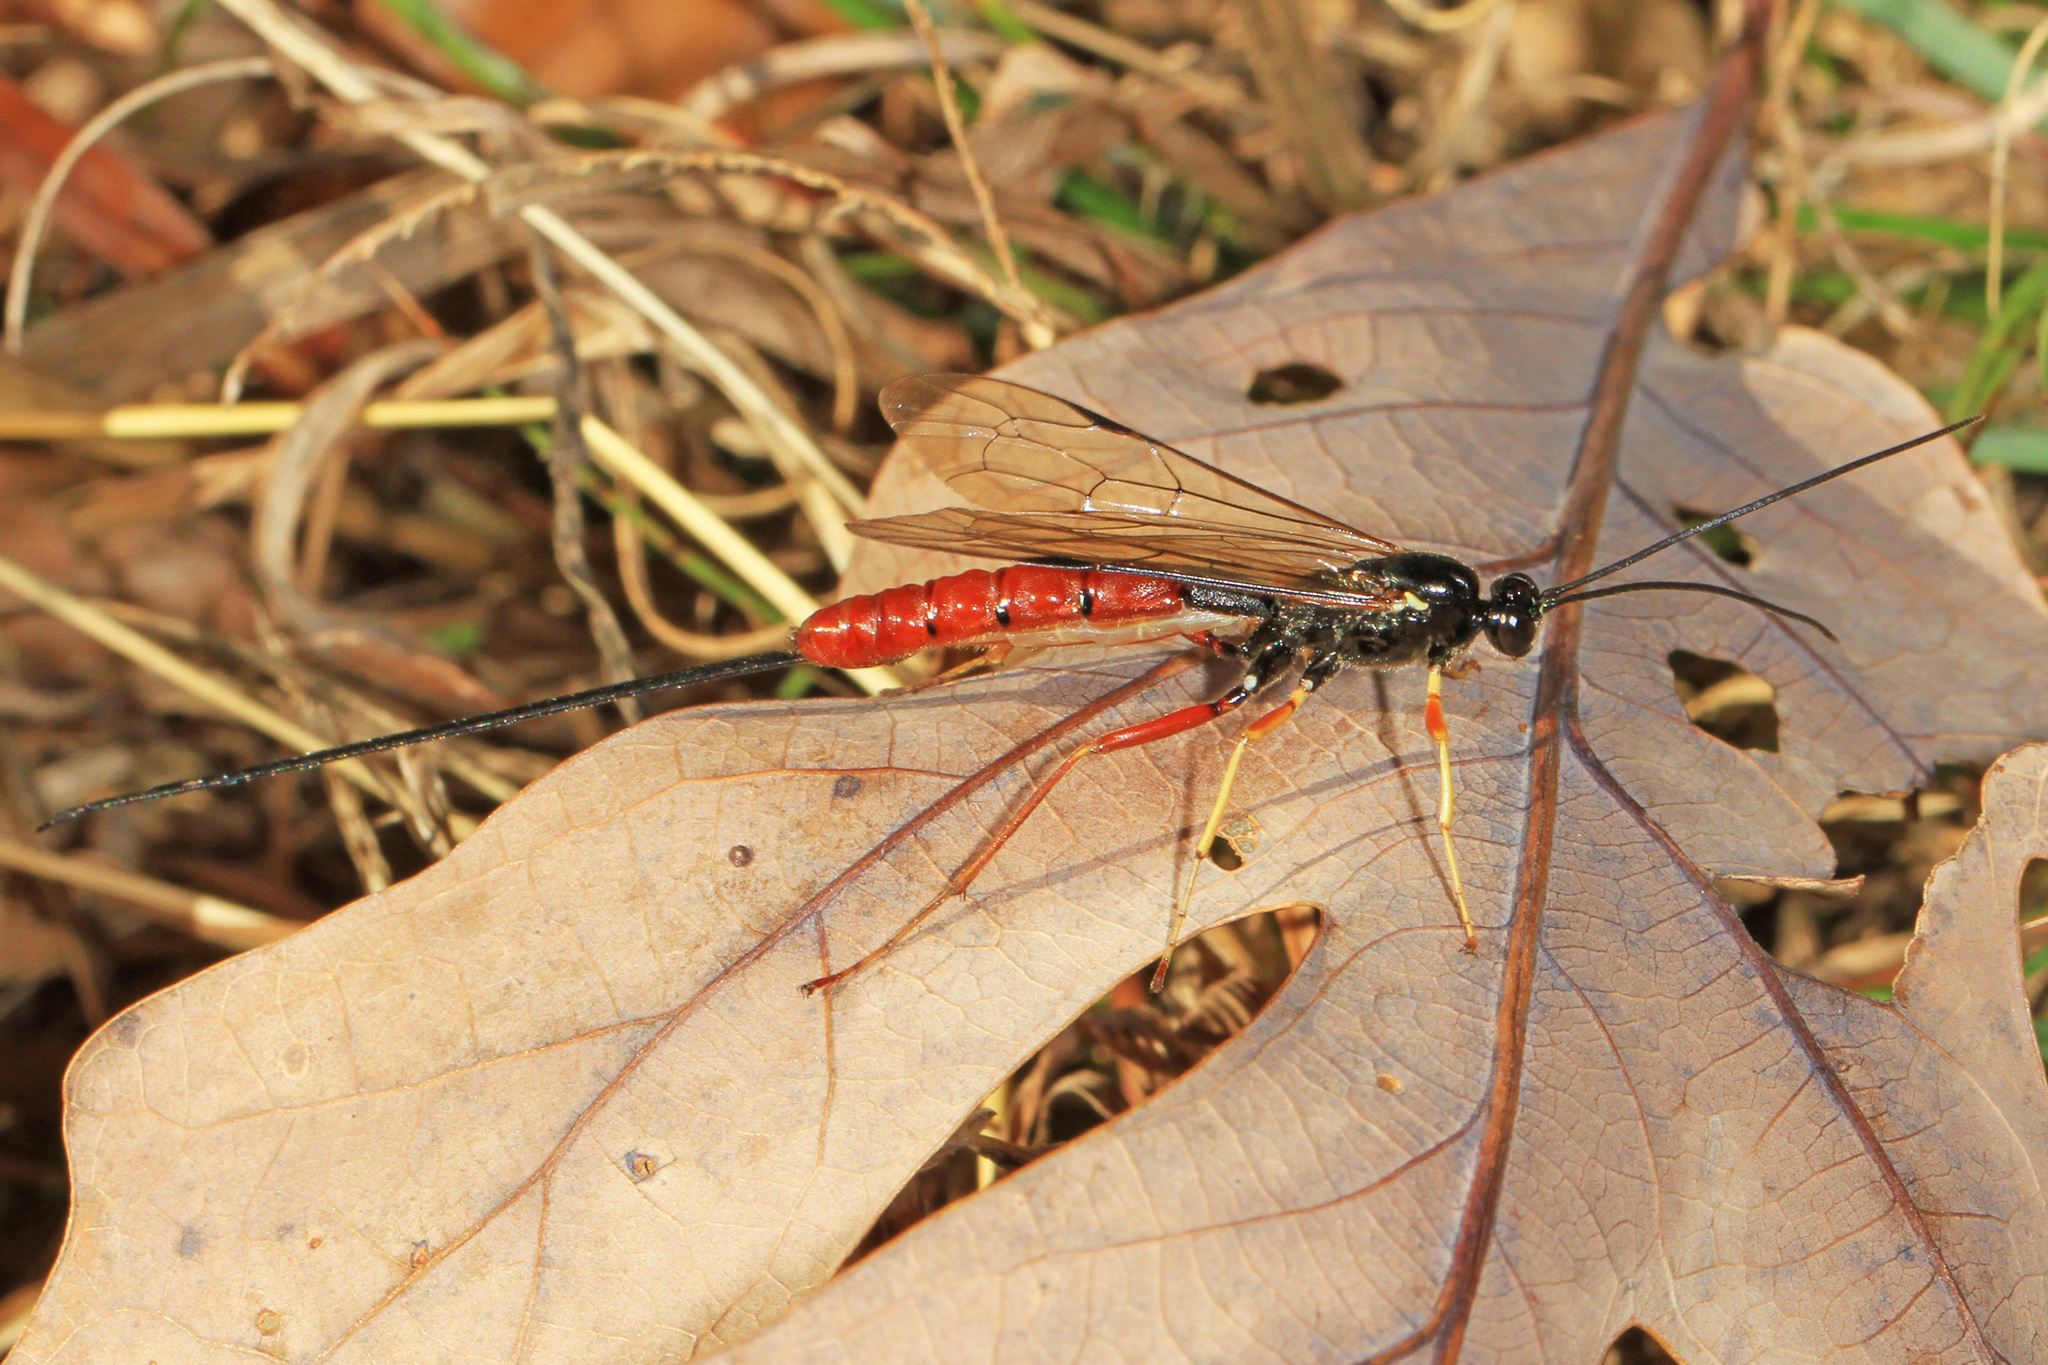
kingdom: Animalia
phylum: Arthropoda
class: Insecta
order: Hymenoptera
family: Ichneumonidae
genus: Dolichomitus
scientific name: Dolichomitus irritator
